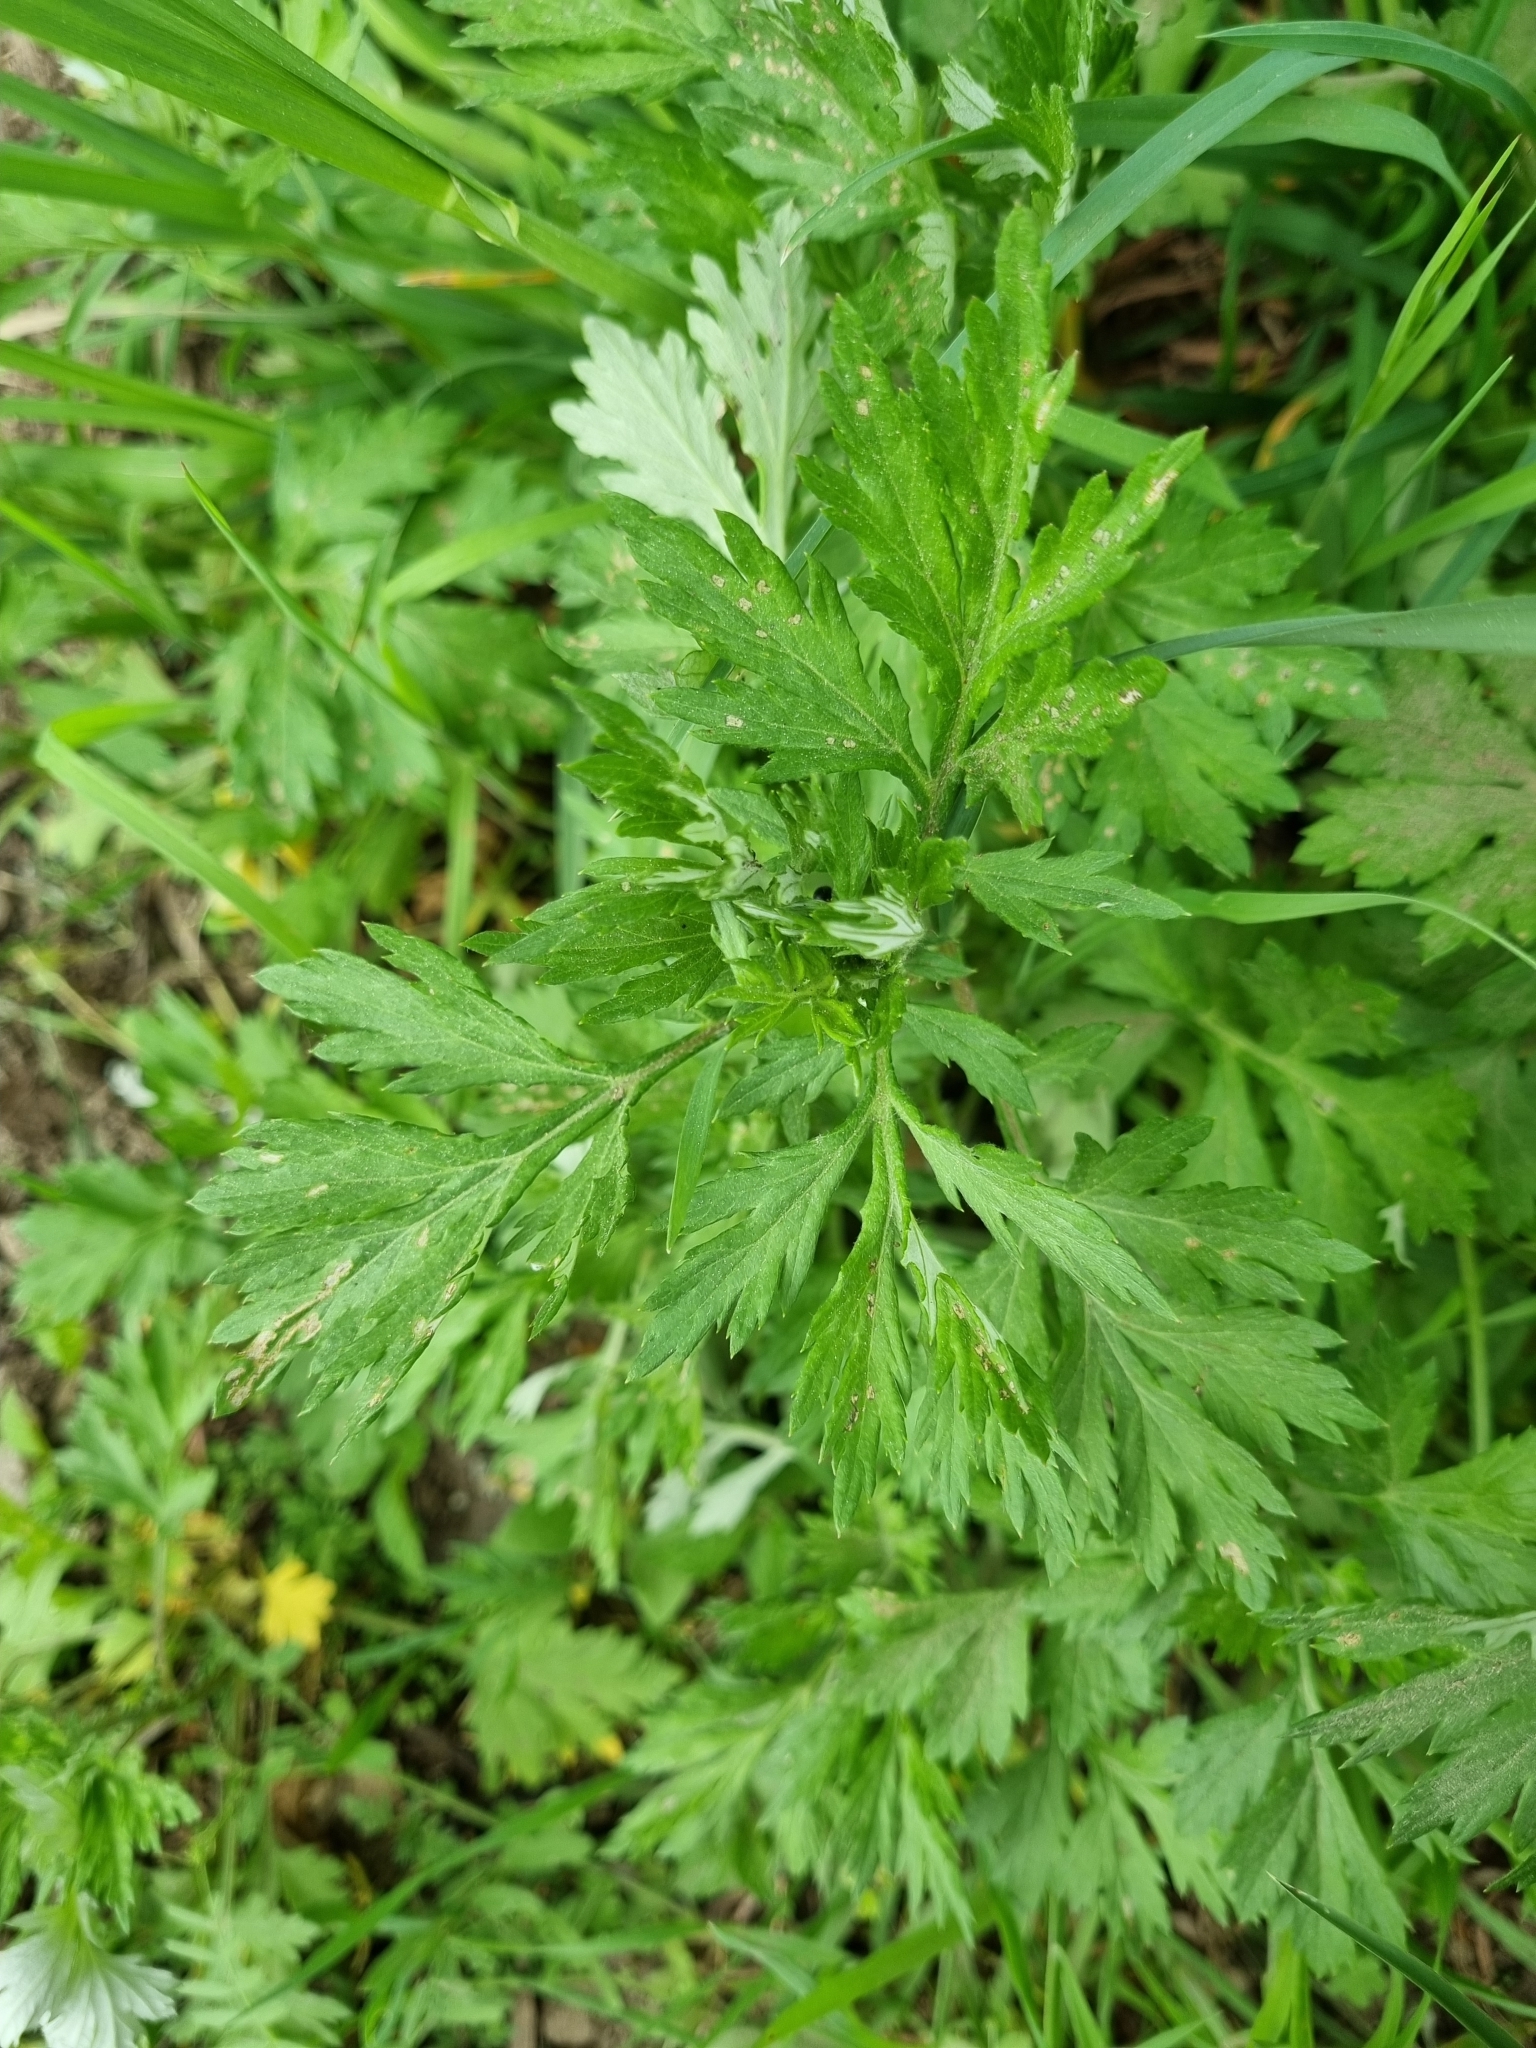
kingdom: Plantae
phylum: Tracheophyta
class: Magnoliopsida
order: Asterales
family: Asteraceae
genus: Artemisia
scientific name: Artemisia vulgaris
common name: Mugwort
